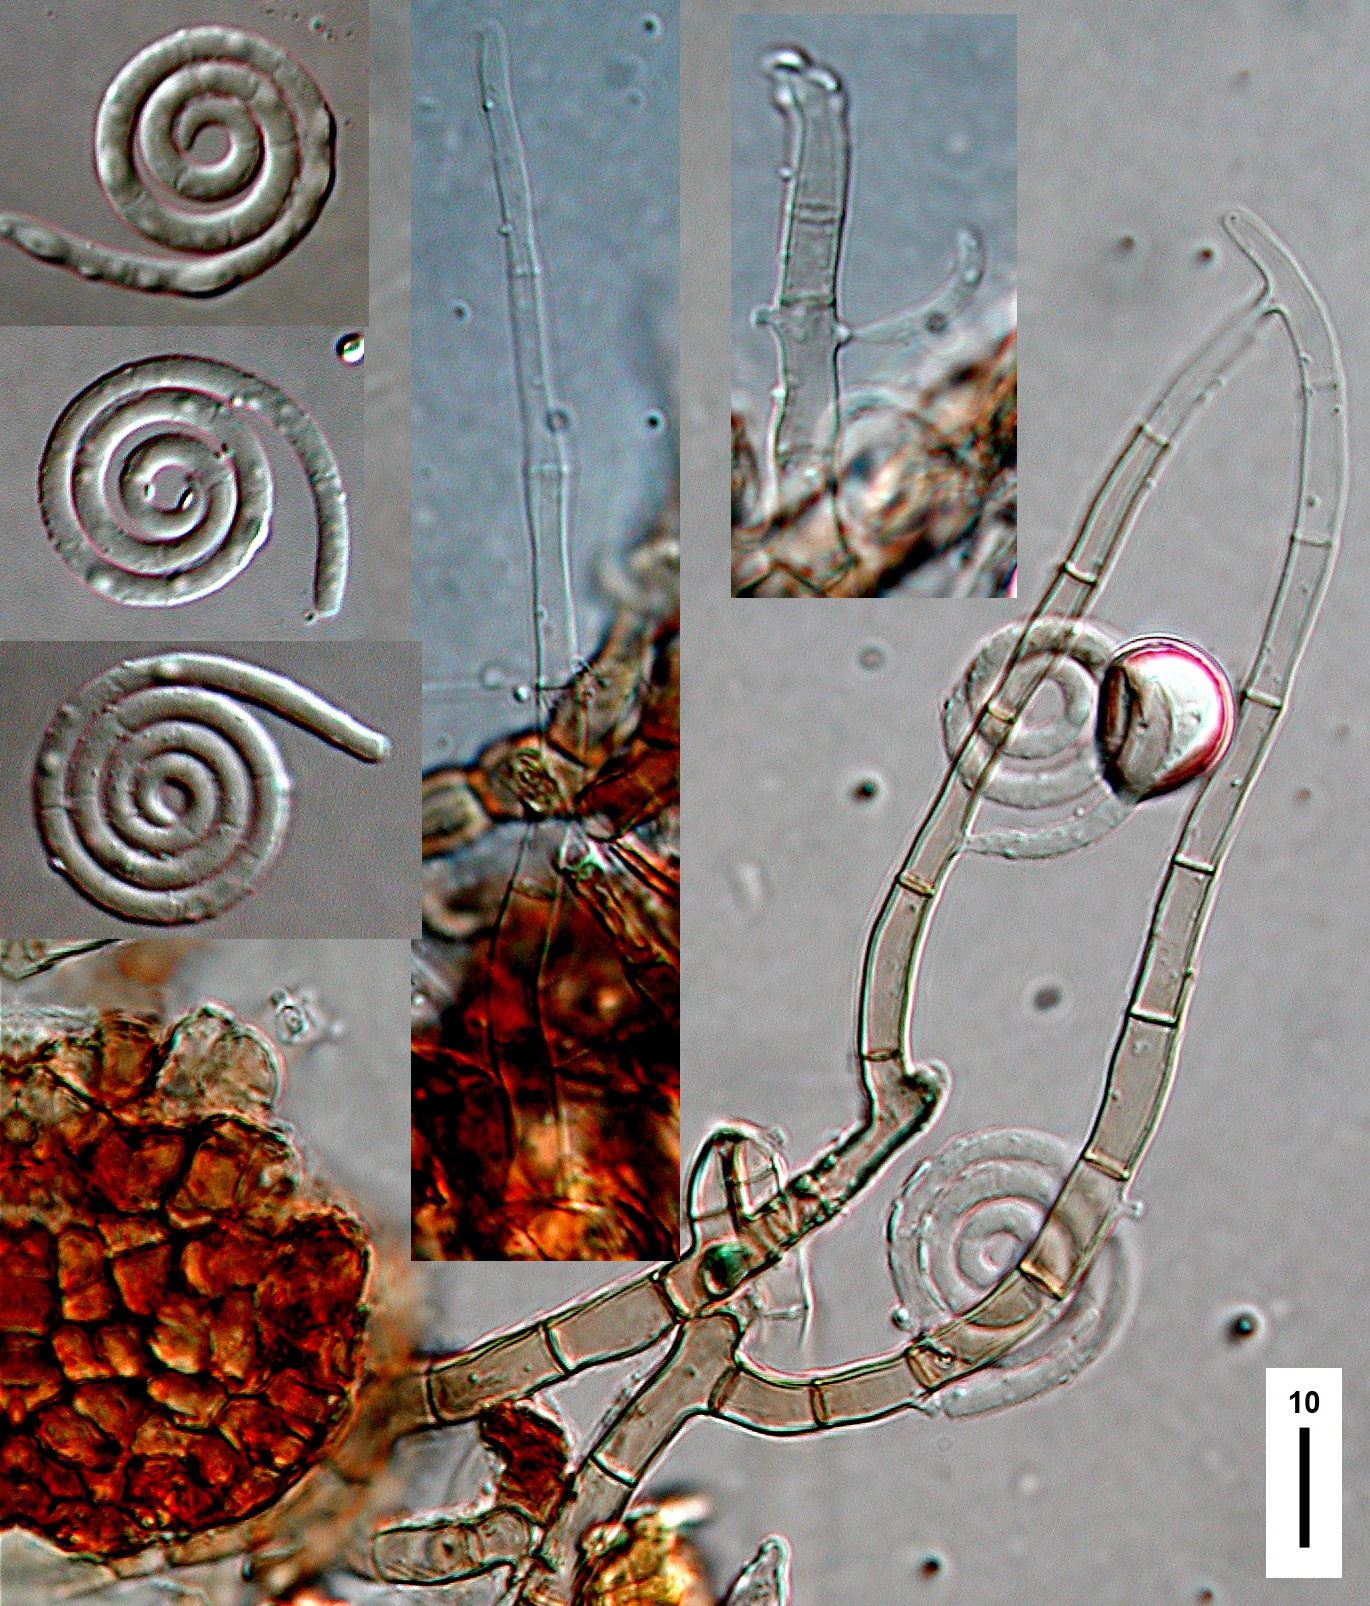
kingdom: Fungi
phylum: Ascomycota
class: Dothideomycetes
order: Tubeufiales
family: Tubeufiaceae
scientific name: Tubeufiaceae
